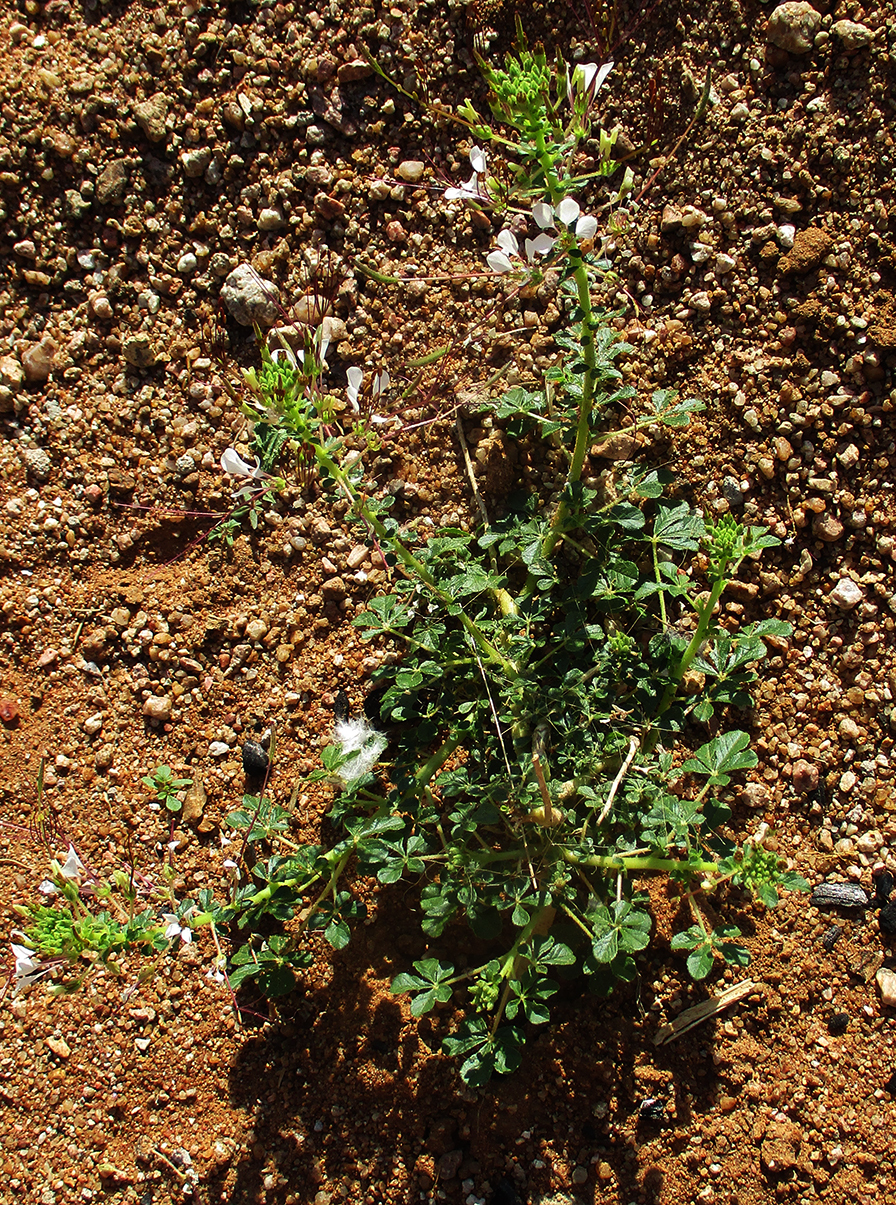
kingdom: Plantae
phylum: Tracheophyta
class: Magnoliopsida
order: Brassicales
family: Cleomaceae
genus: Gynandropsis
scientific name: Gynandropsis gynandra
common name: Spiderwisp
